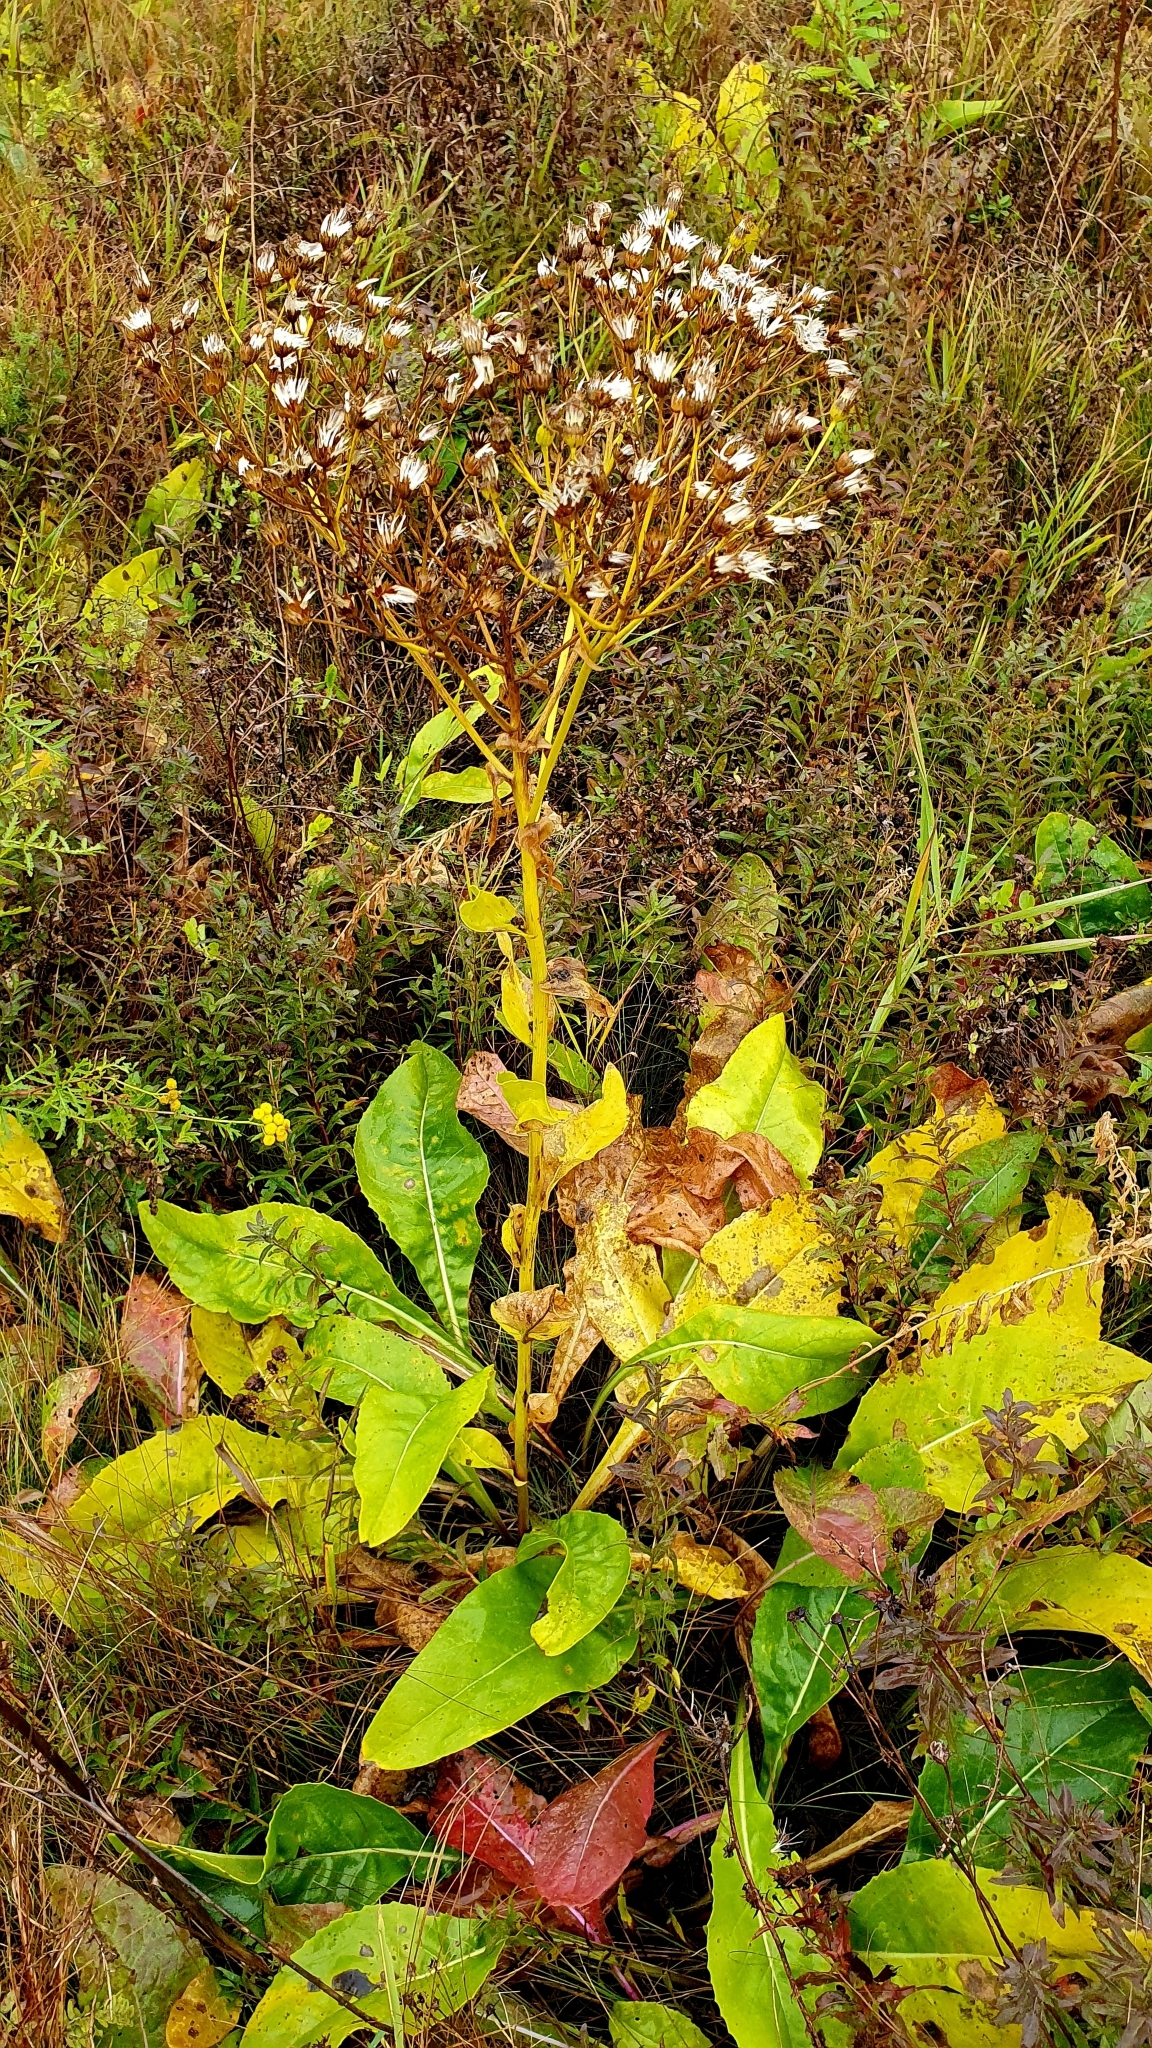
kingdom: Plantae
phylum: Tracheophyta
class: Magnoliopsida
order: Asterales
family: Asteraceae
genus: Senecio
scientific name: Senecio doria
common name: Golden ragwort
